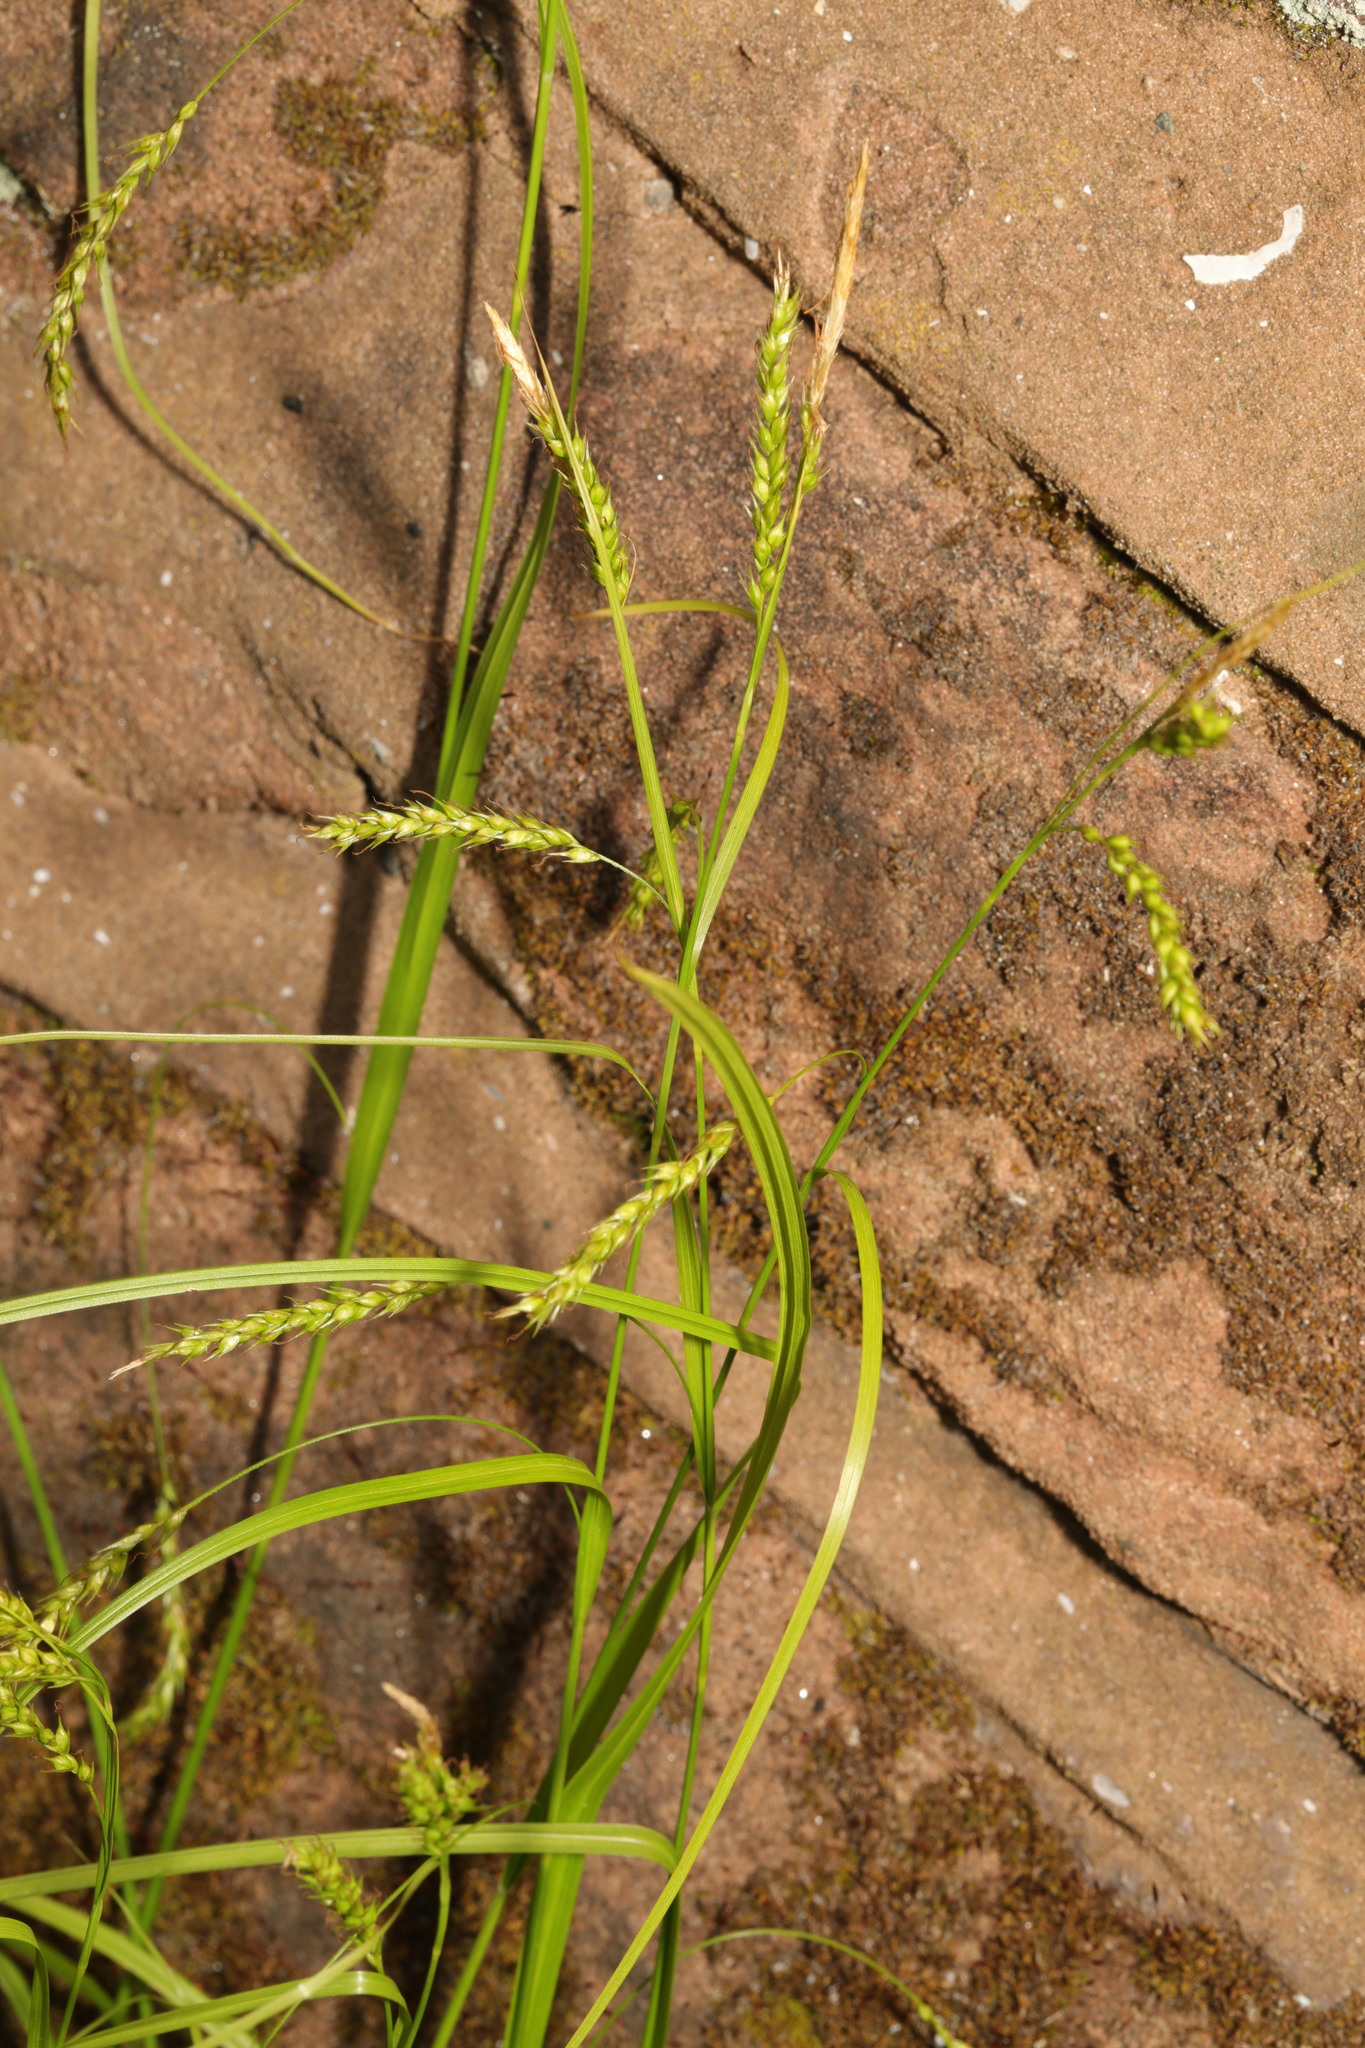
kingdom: Plantae
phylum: Tracheophyta
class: Liliopsida
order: Poales
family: Cyperaceae
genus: Carex
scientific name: Carex sylvatica
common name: Wood-sedge
